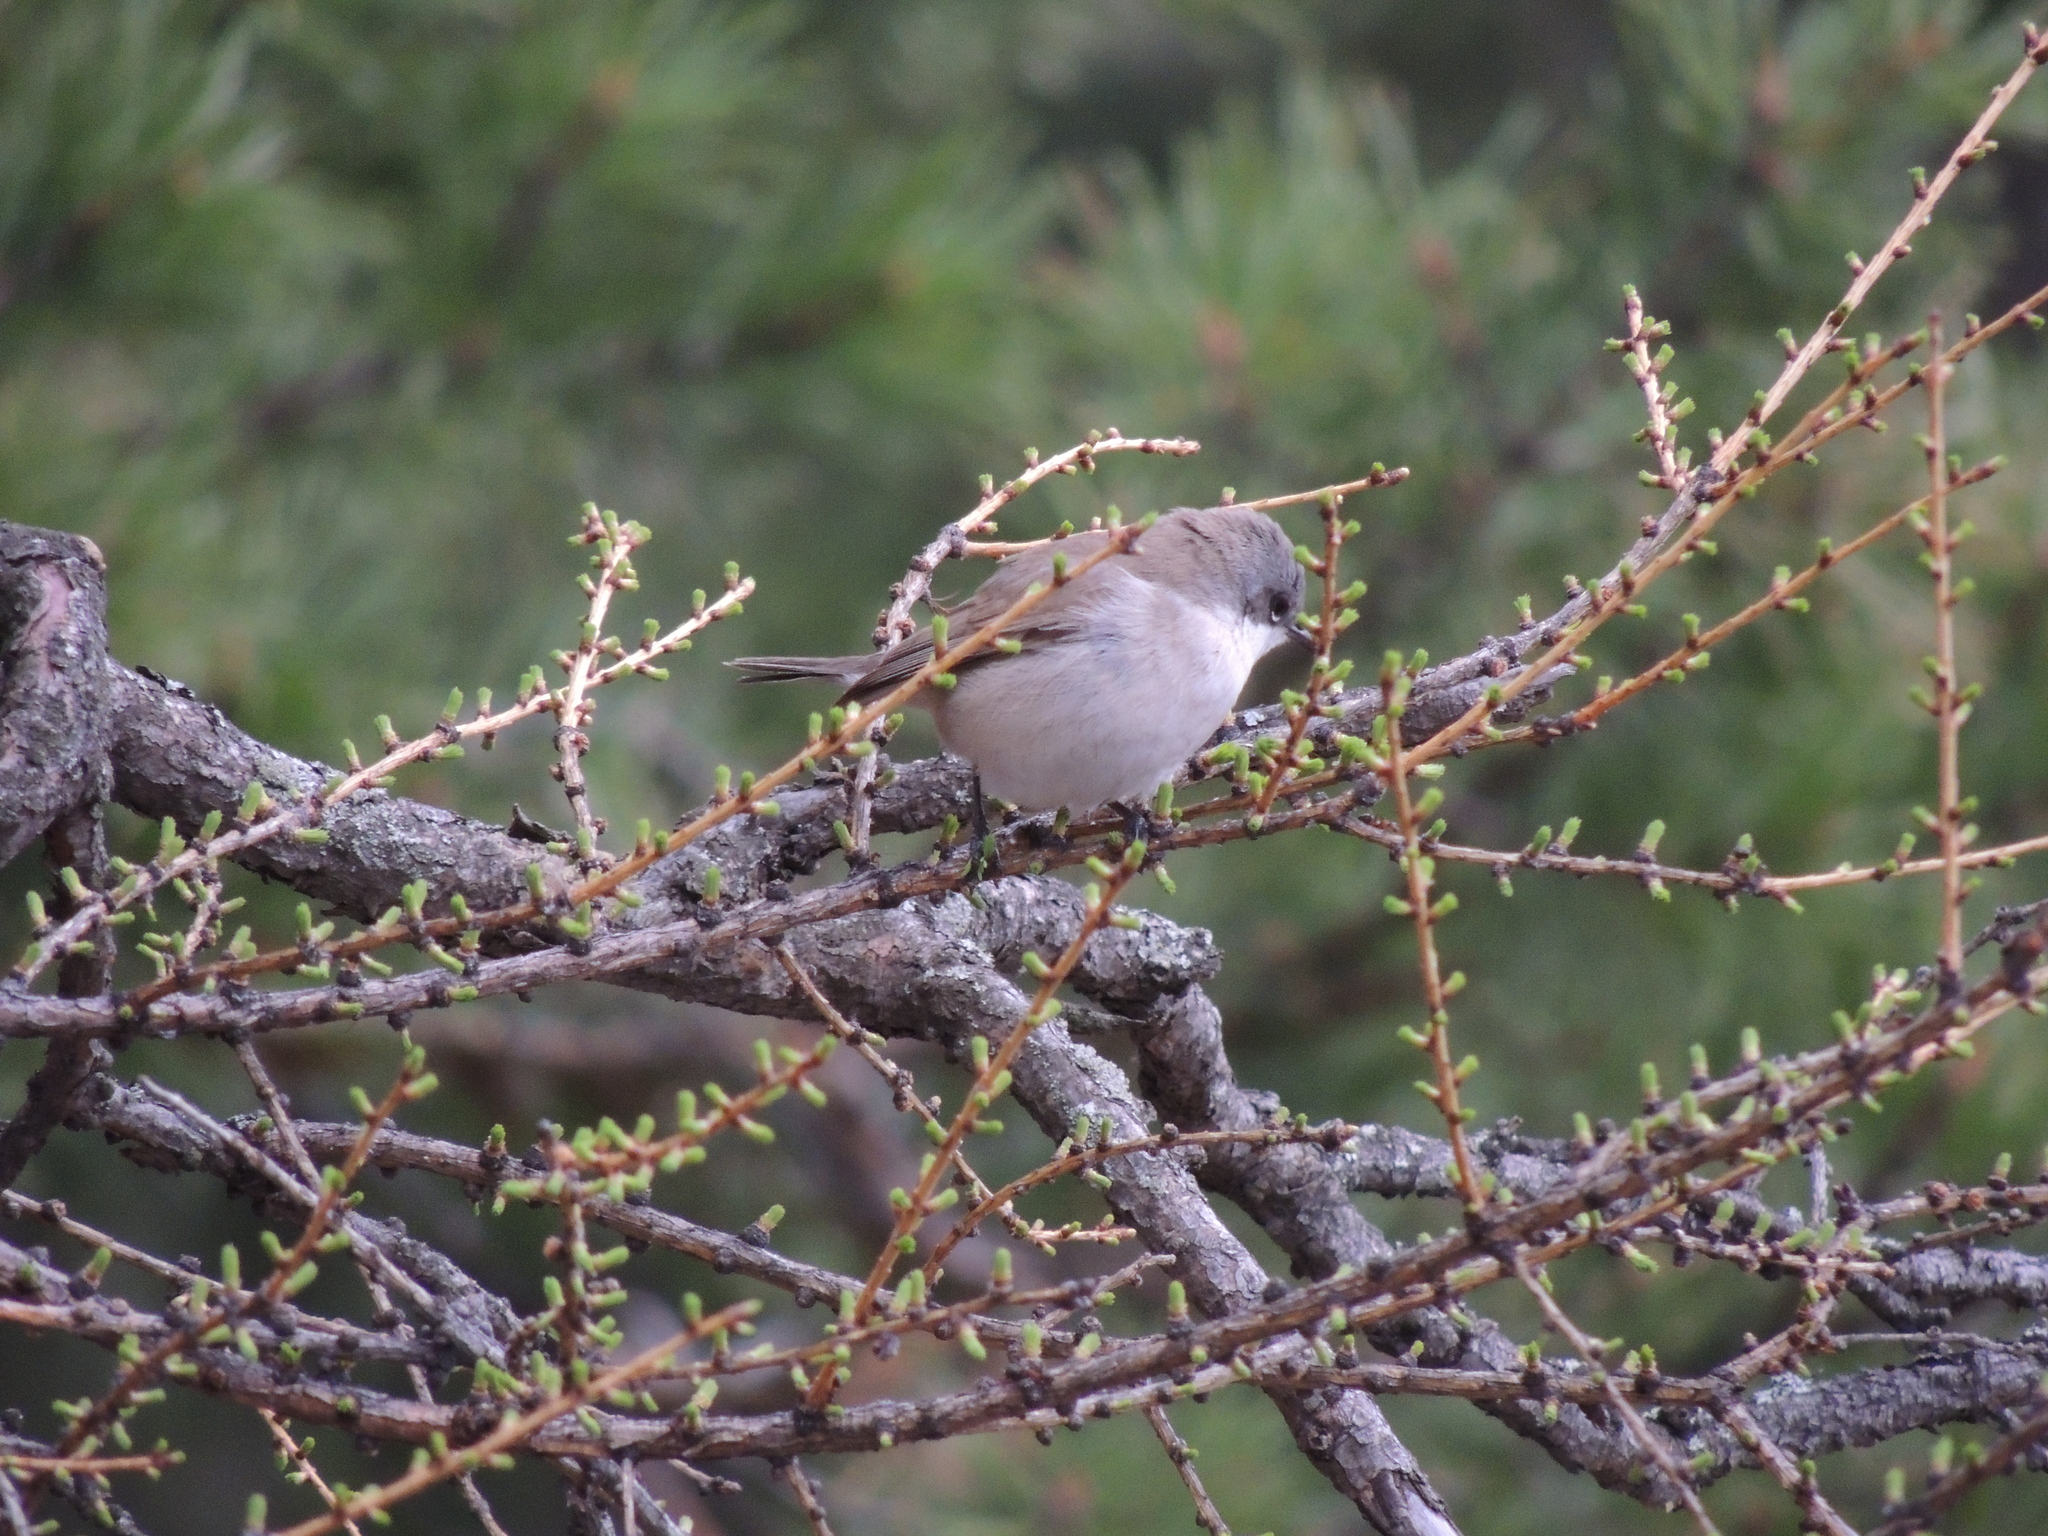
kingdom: Animalia
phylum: Chordata
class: Aves
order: Passeriformes
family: Sylviidae
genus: Sylvia
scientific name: Sylvia curruca
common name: Lesser whitethroat
